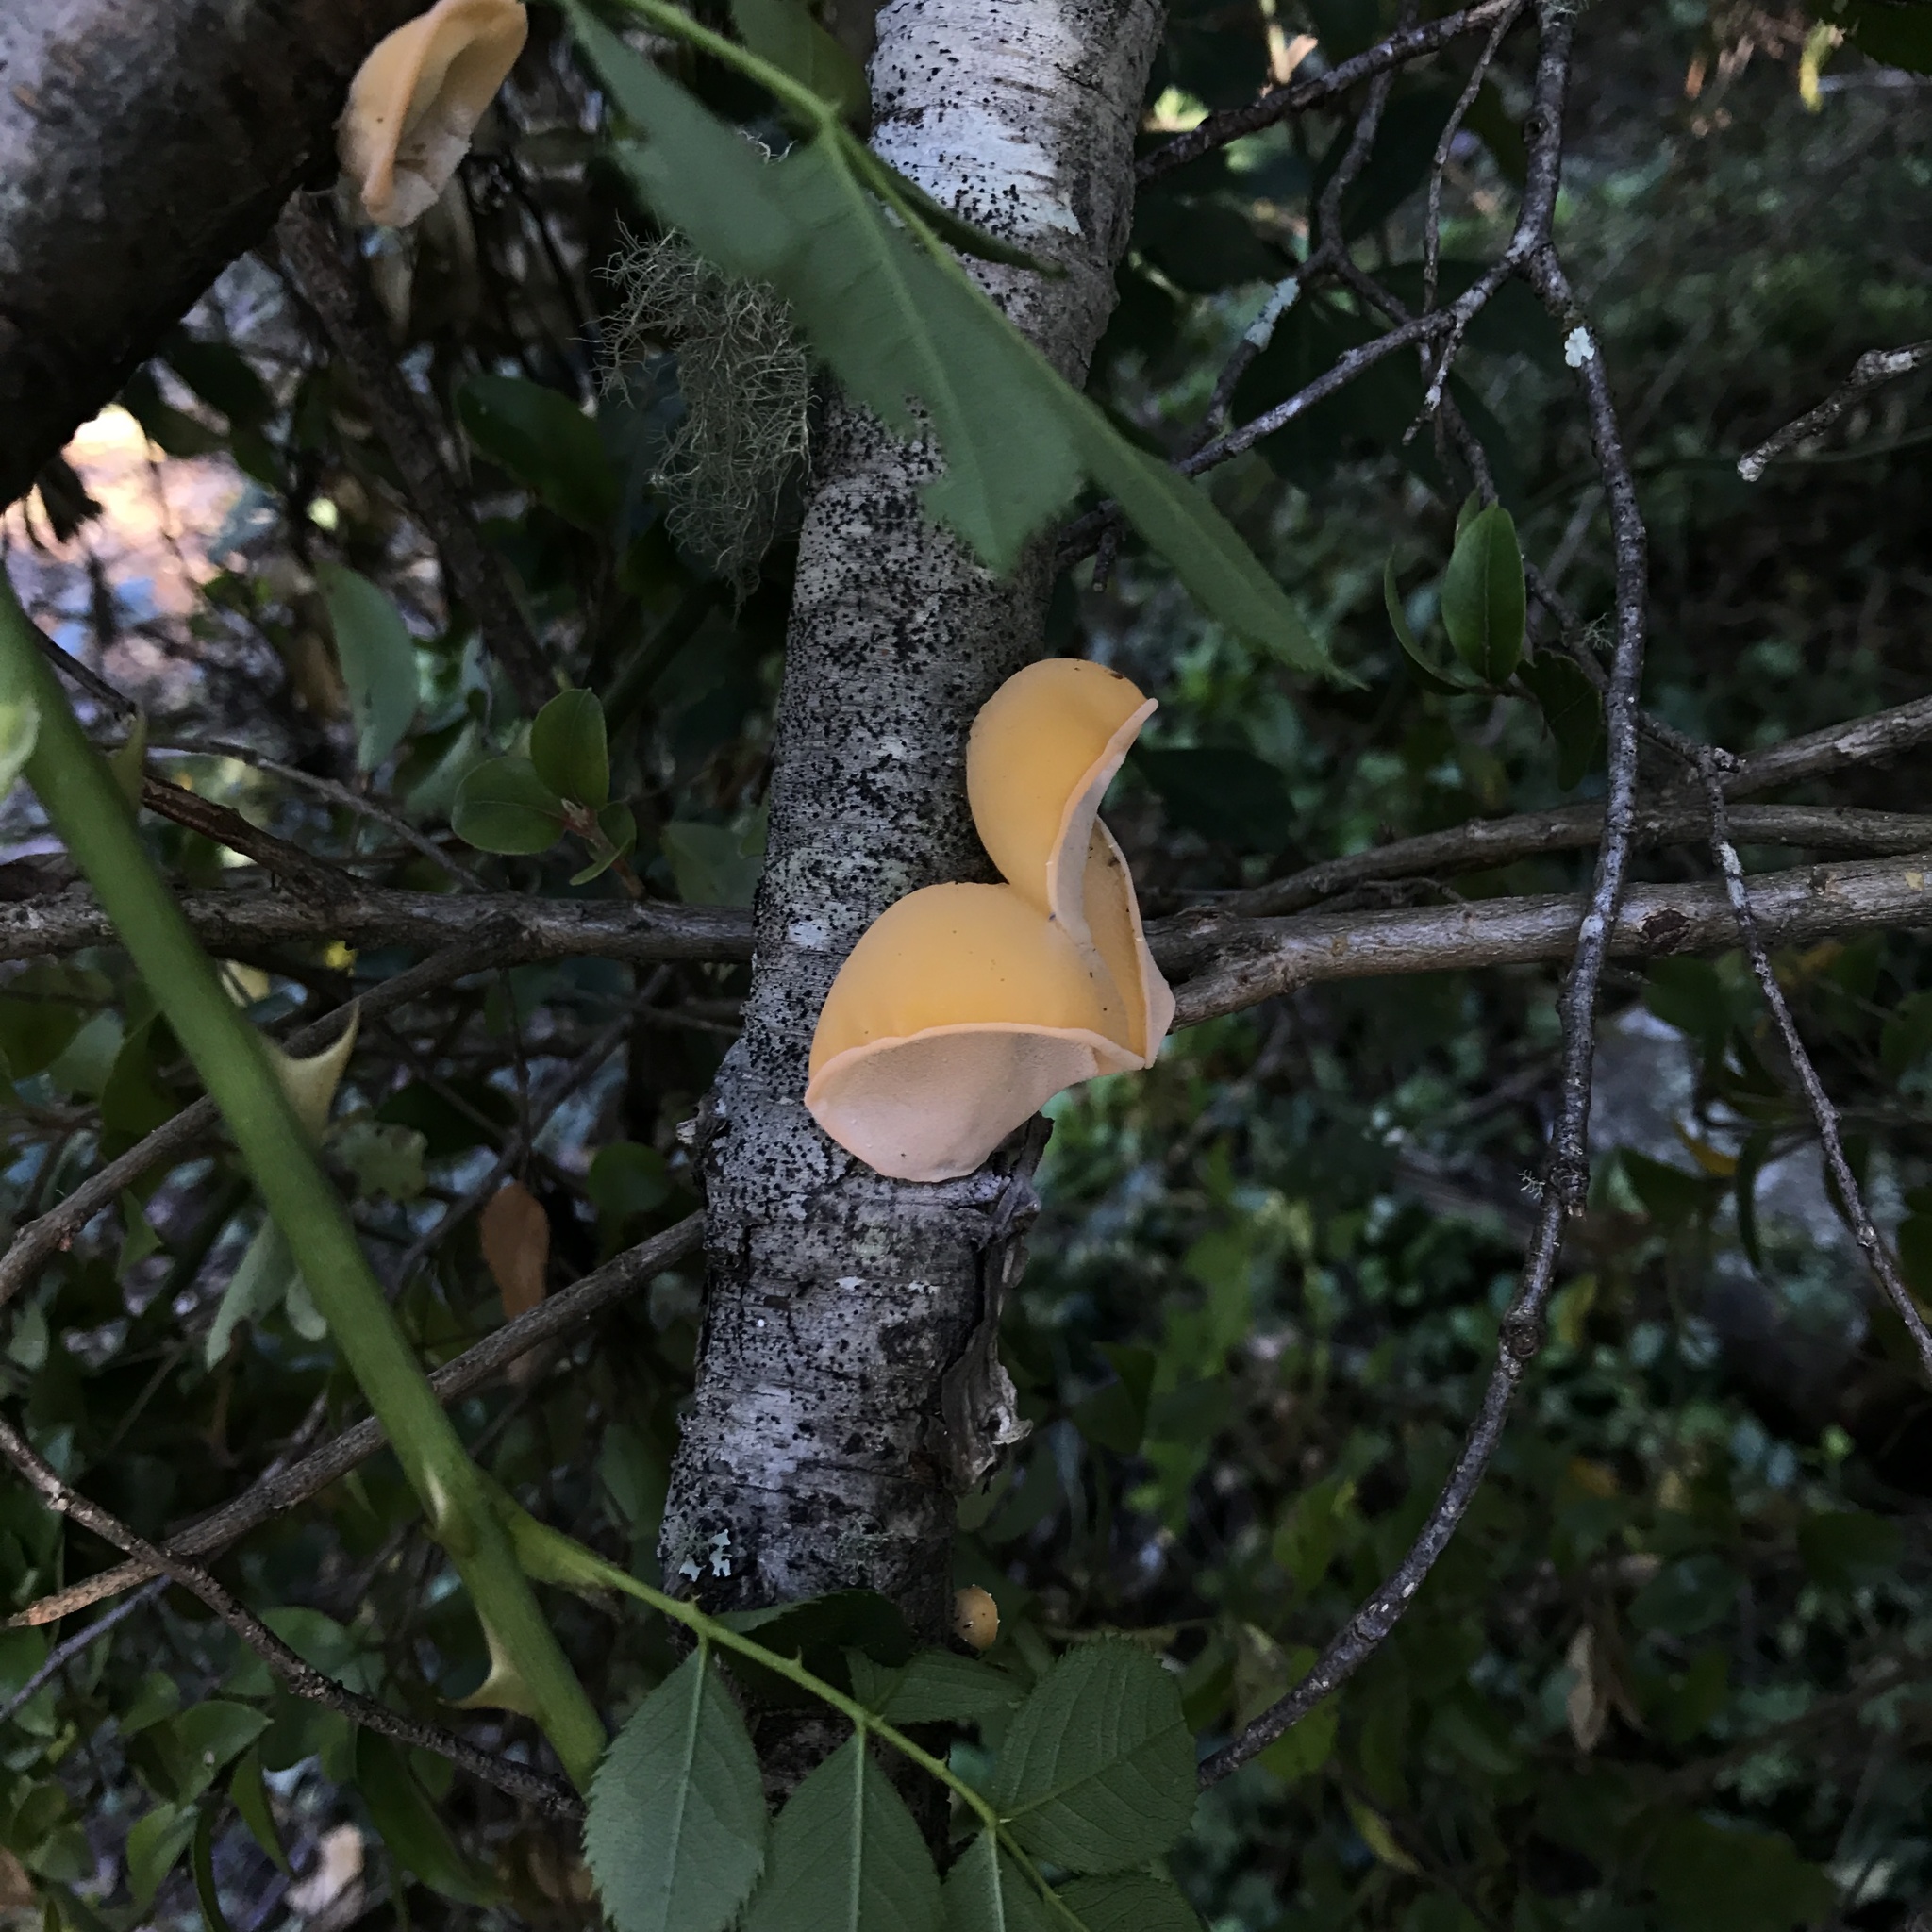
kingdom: Fungi
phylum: Basidiomycota
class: Agaricomycetes
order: Russulales
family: Stereaceae
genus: Aleurodiscus
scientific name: Aleurodiscus vitellinus
